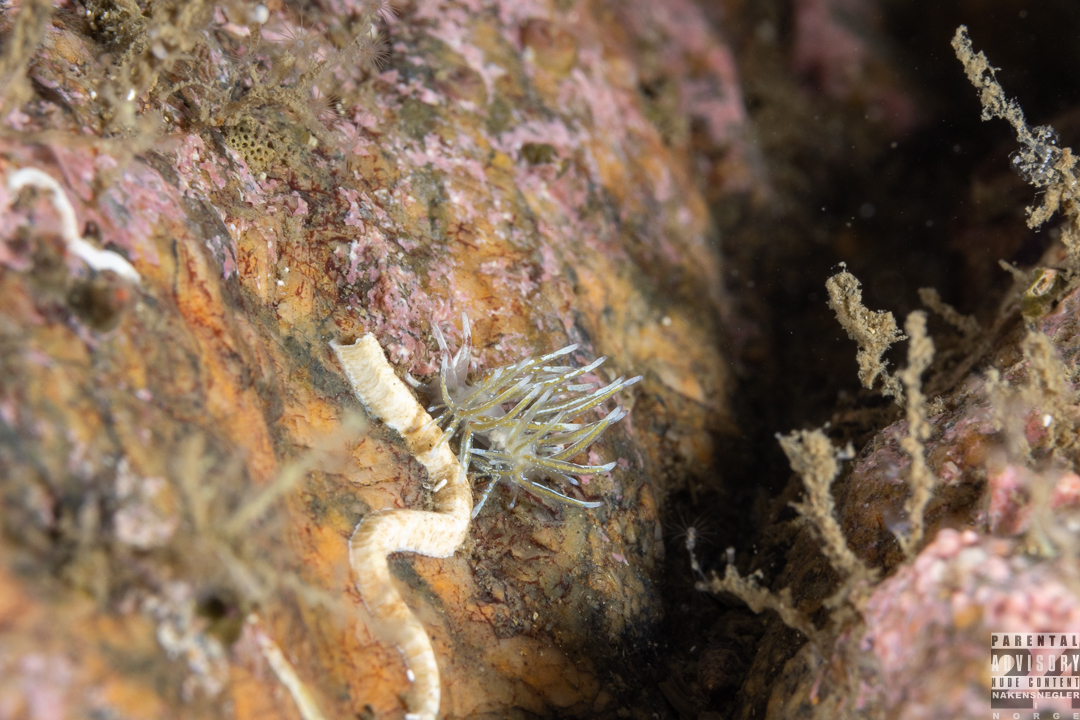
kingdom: Animalia
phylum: Mollusca
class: Gastropoda
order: Nudibranchia
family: Trinchesiidae
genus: Rubramoena
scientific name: Rubramoena rubescens
